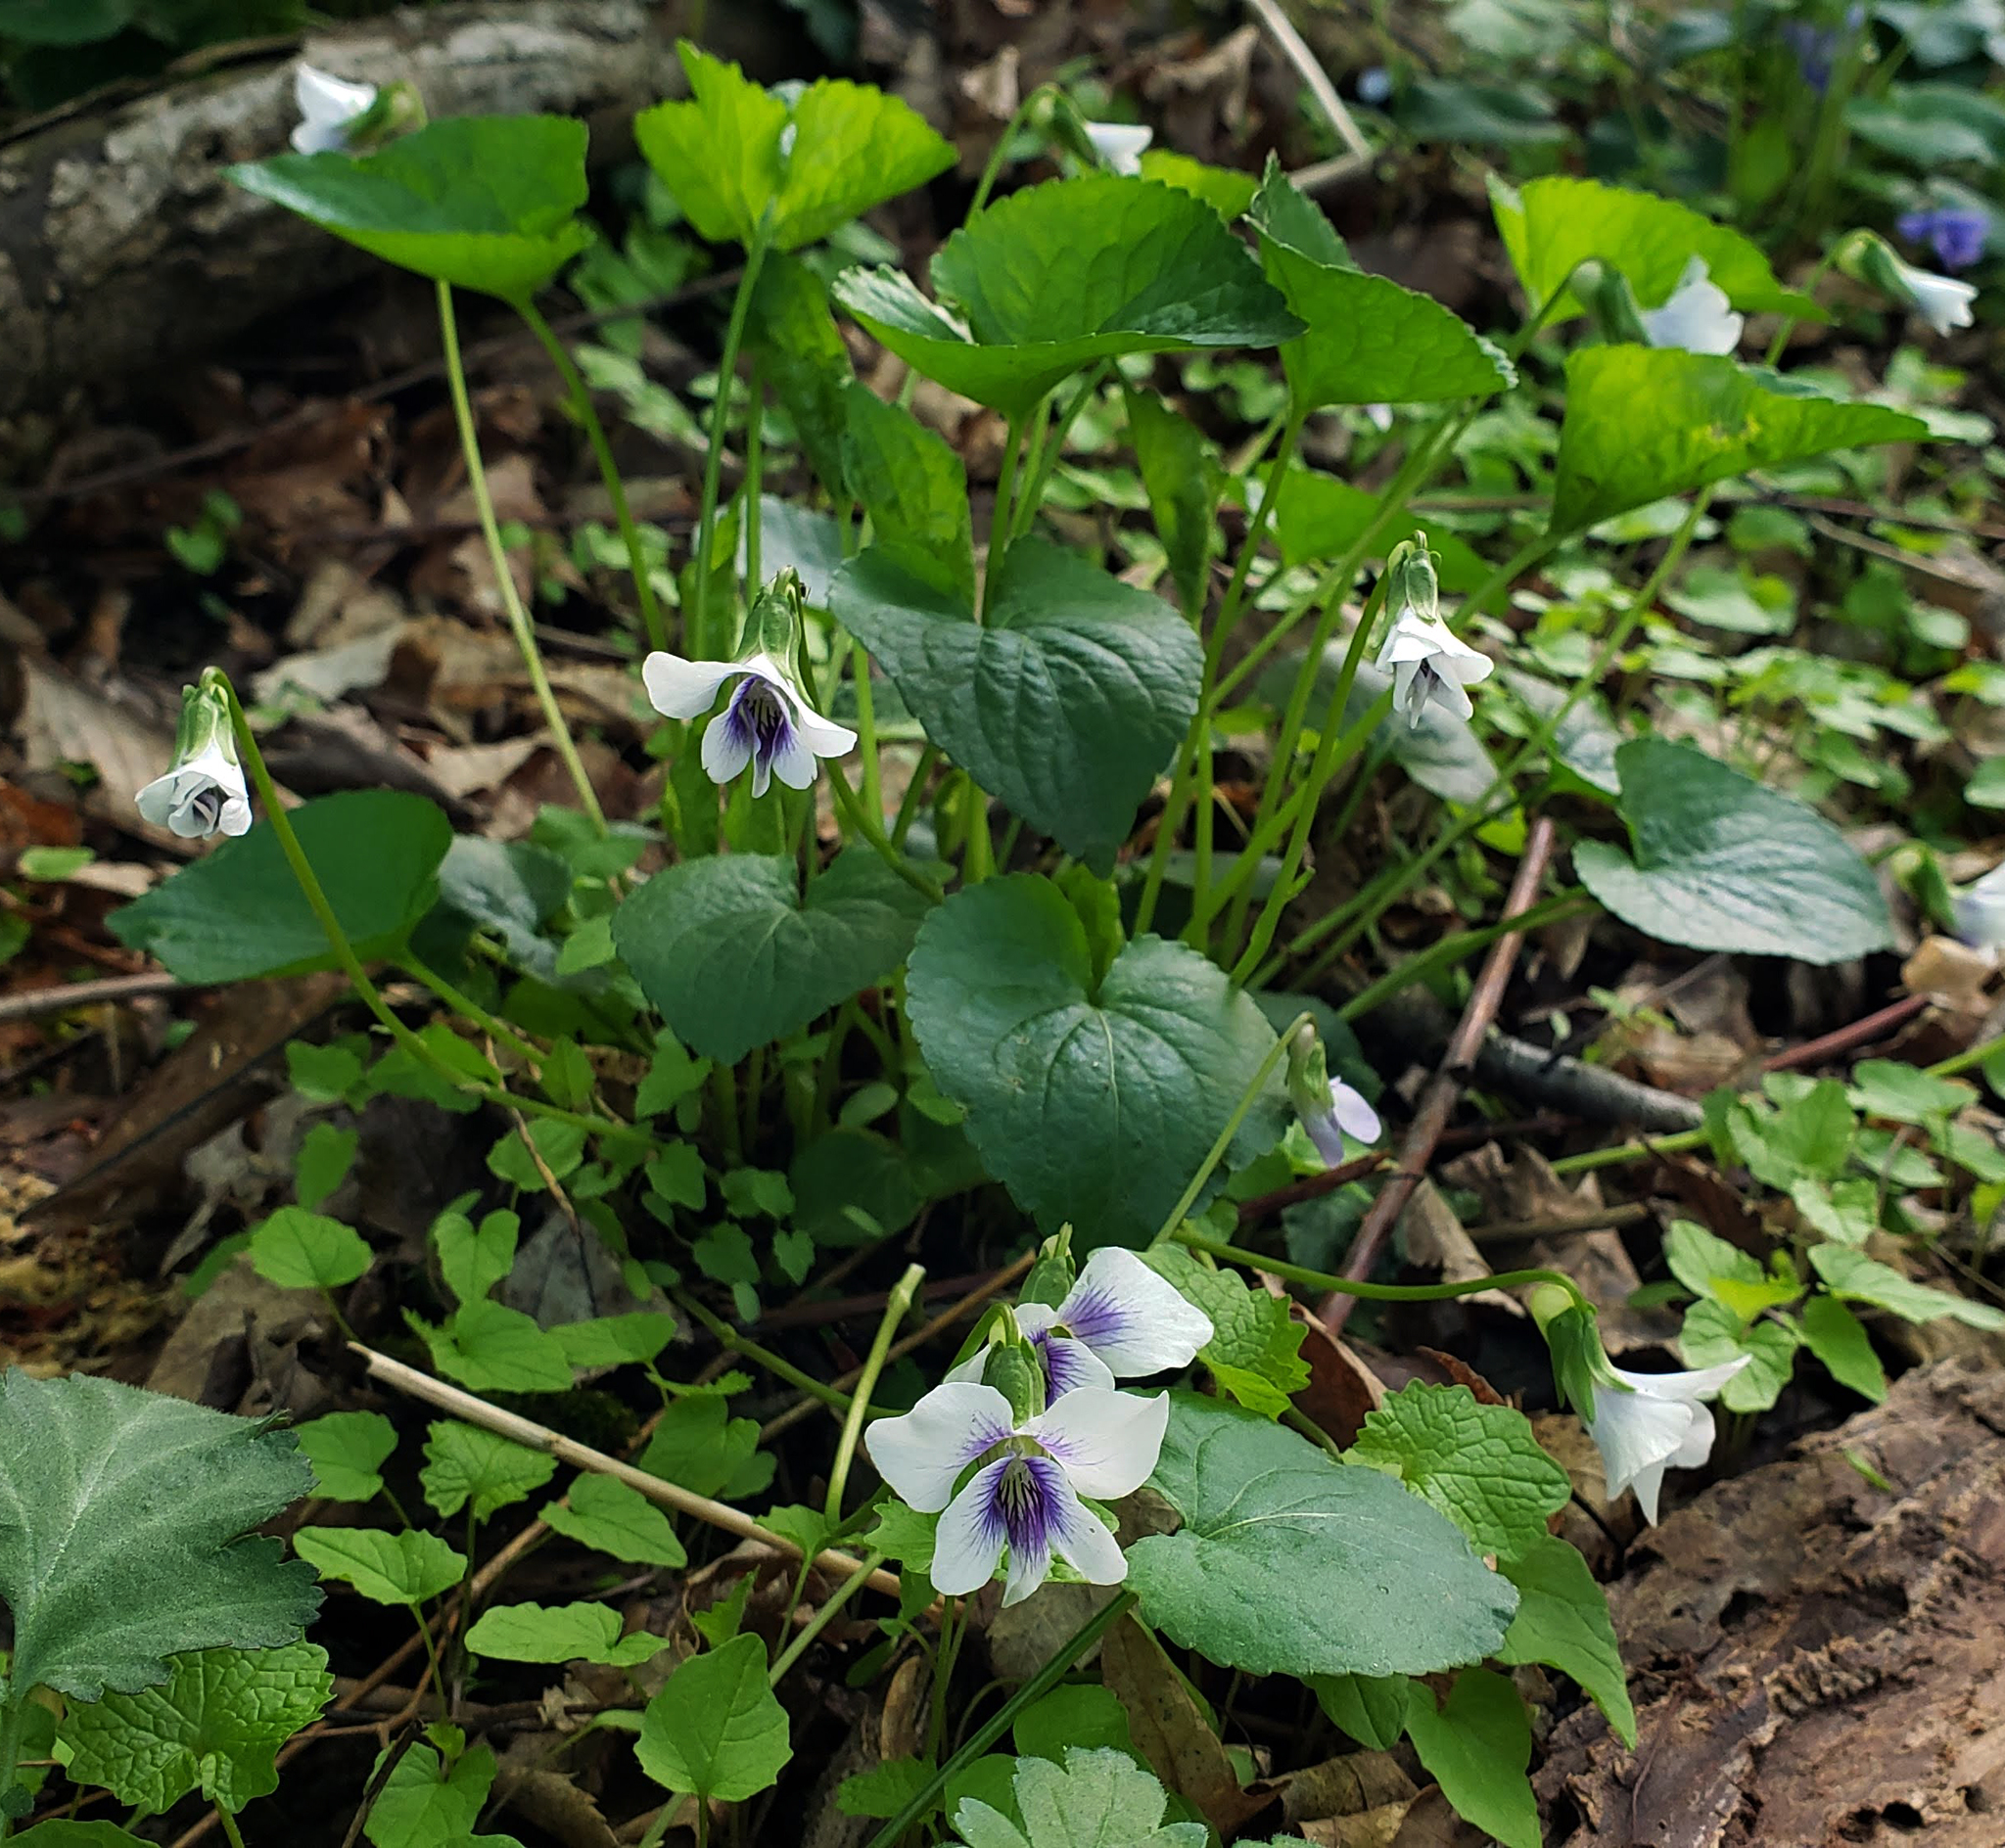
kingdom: Plantae
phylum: Tracheophyta
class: Magnoliopsida
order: Malpighiales
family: Violaceae
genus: Viola
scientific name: Viola sororia
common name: Dooryard violet
